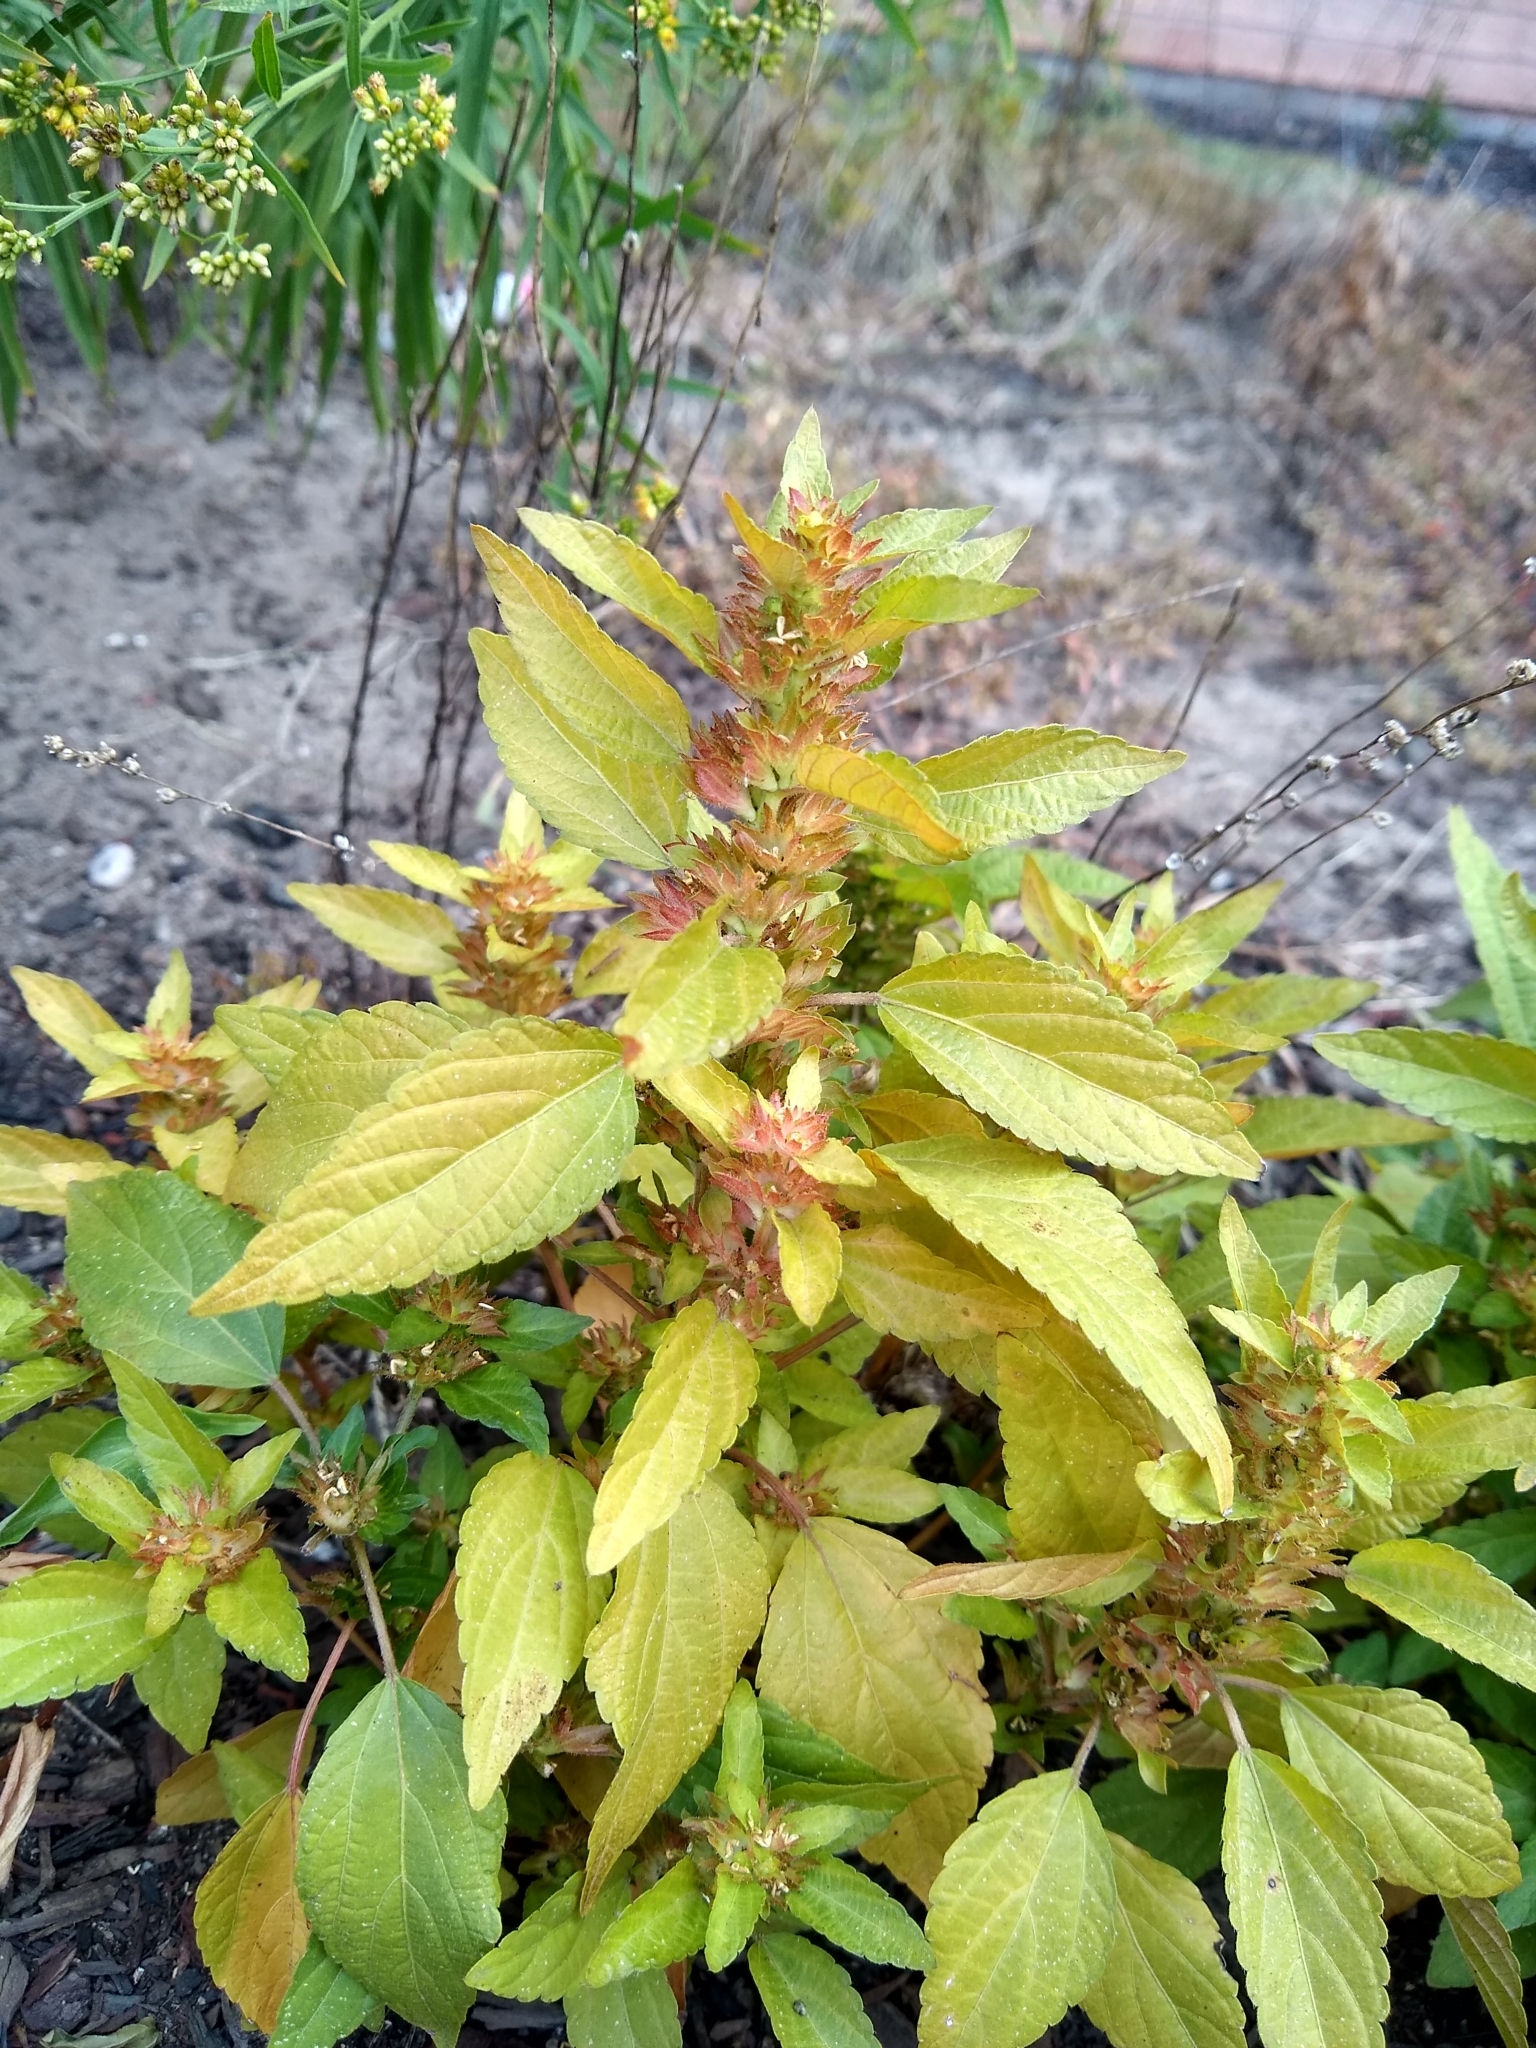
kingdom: Plantae
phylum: Tracheophyta
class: Magnoliopsida
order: Malpighiales
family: Euphorbiaceae
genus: Acalypha
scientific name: Acalypha rhomboidea
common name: Rhombic copperleaf
